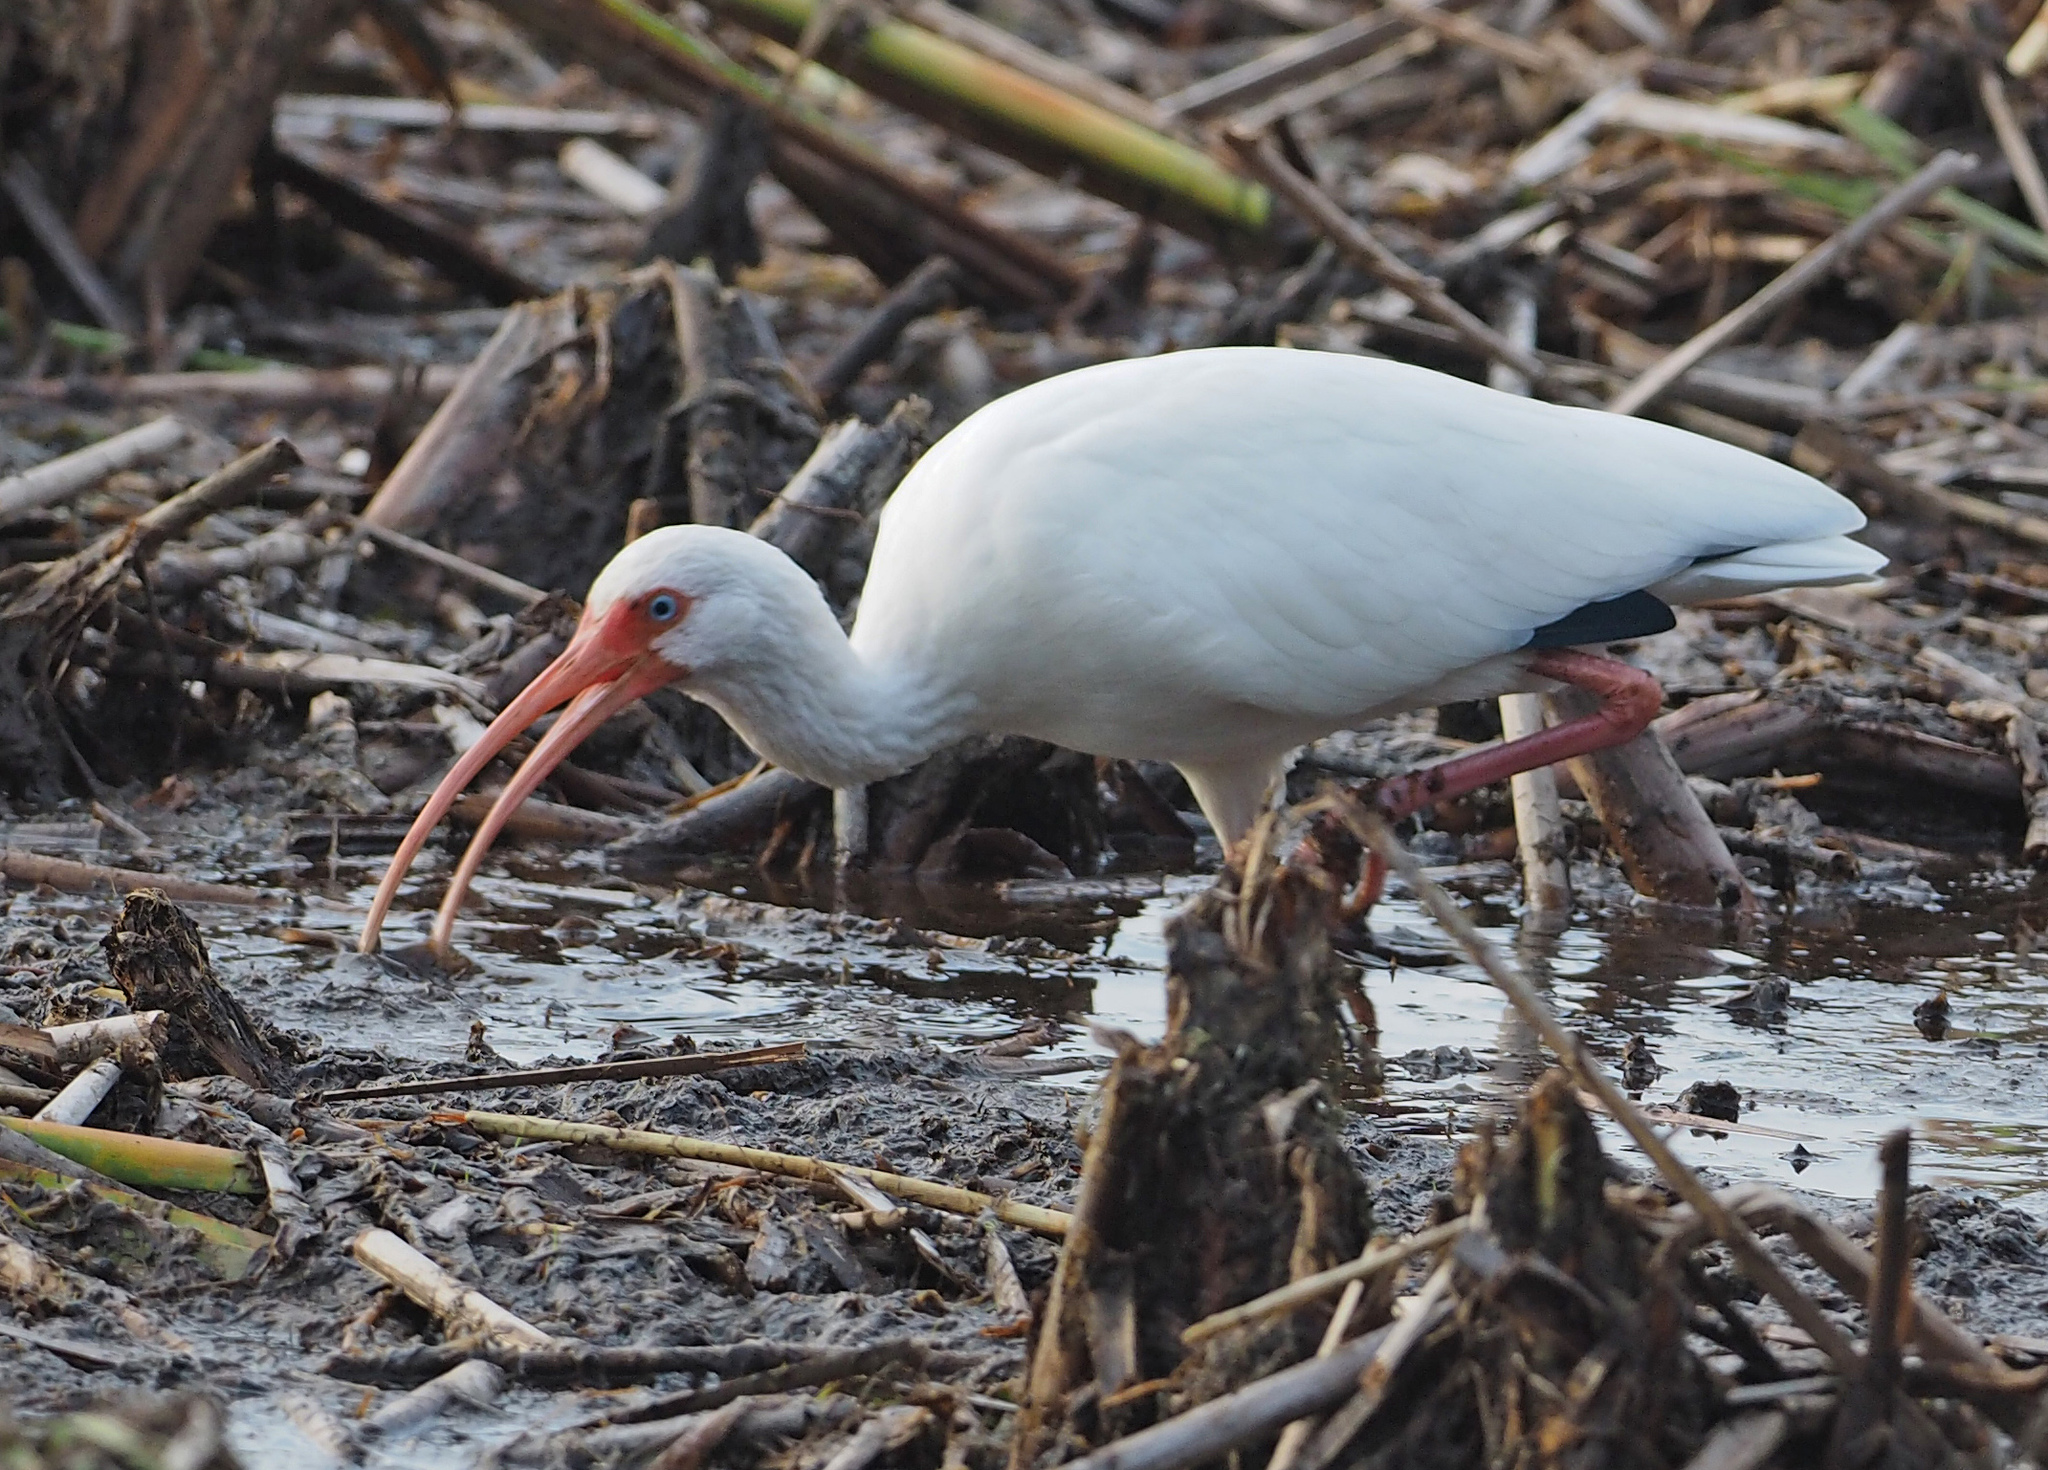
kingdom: Animalia
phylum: Chordata
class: Aves
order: Pelecaniformes
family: Threskiornithidae
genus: Eudocimus
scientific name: Eudocimus albus
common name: White ibis
